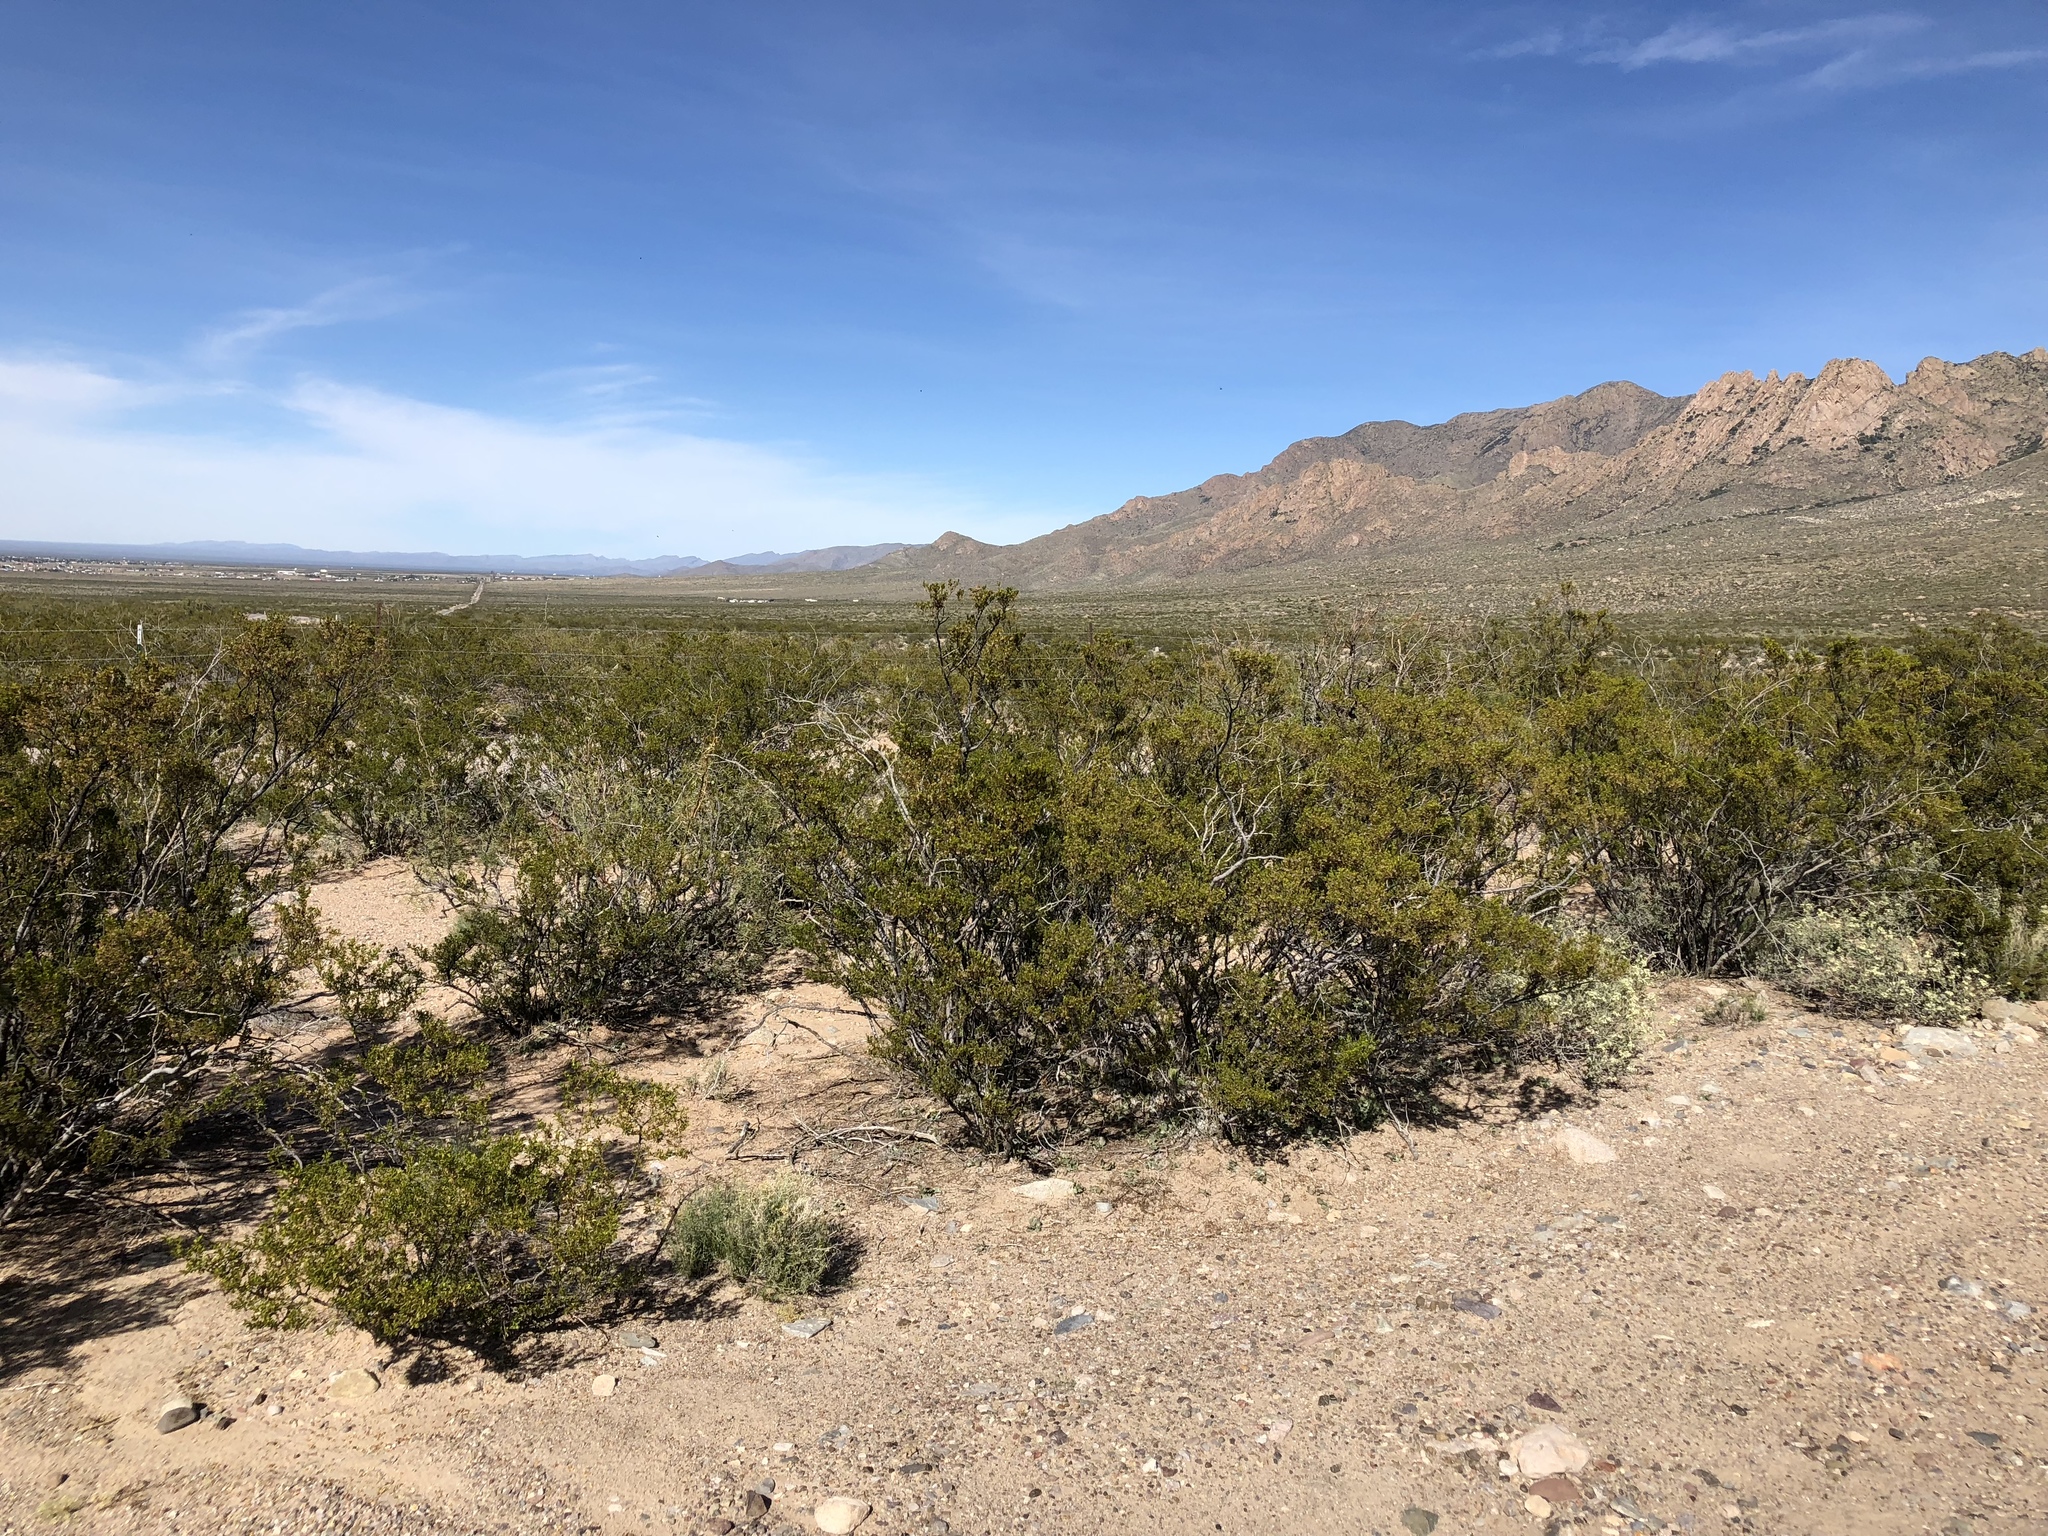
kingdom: Plantae
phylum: Tracheophyta
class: Magnoliopsida
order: Zygophyllales
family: Zygophyllaceae
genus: Larrea
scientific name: Larrea tridentata
